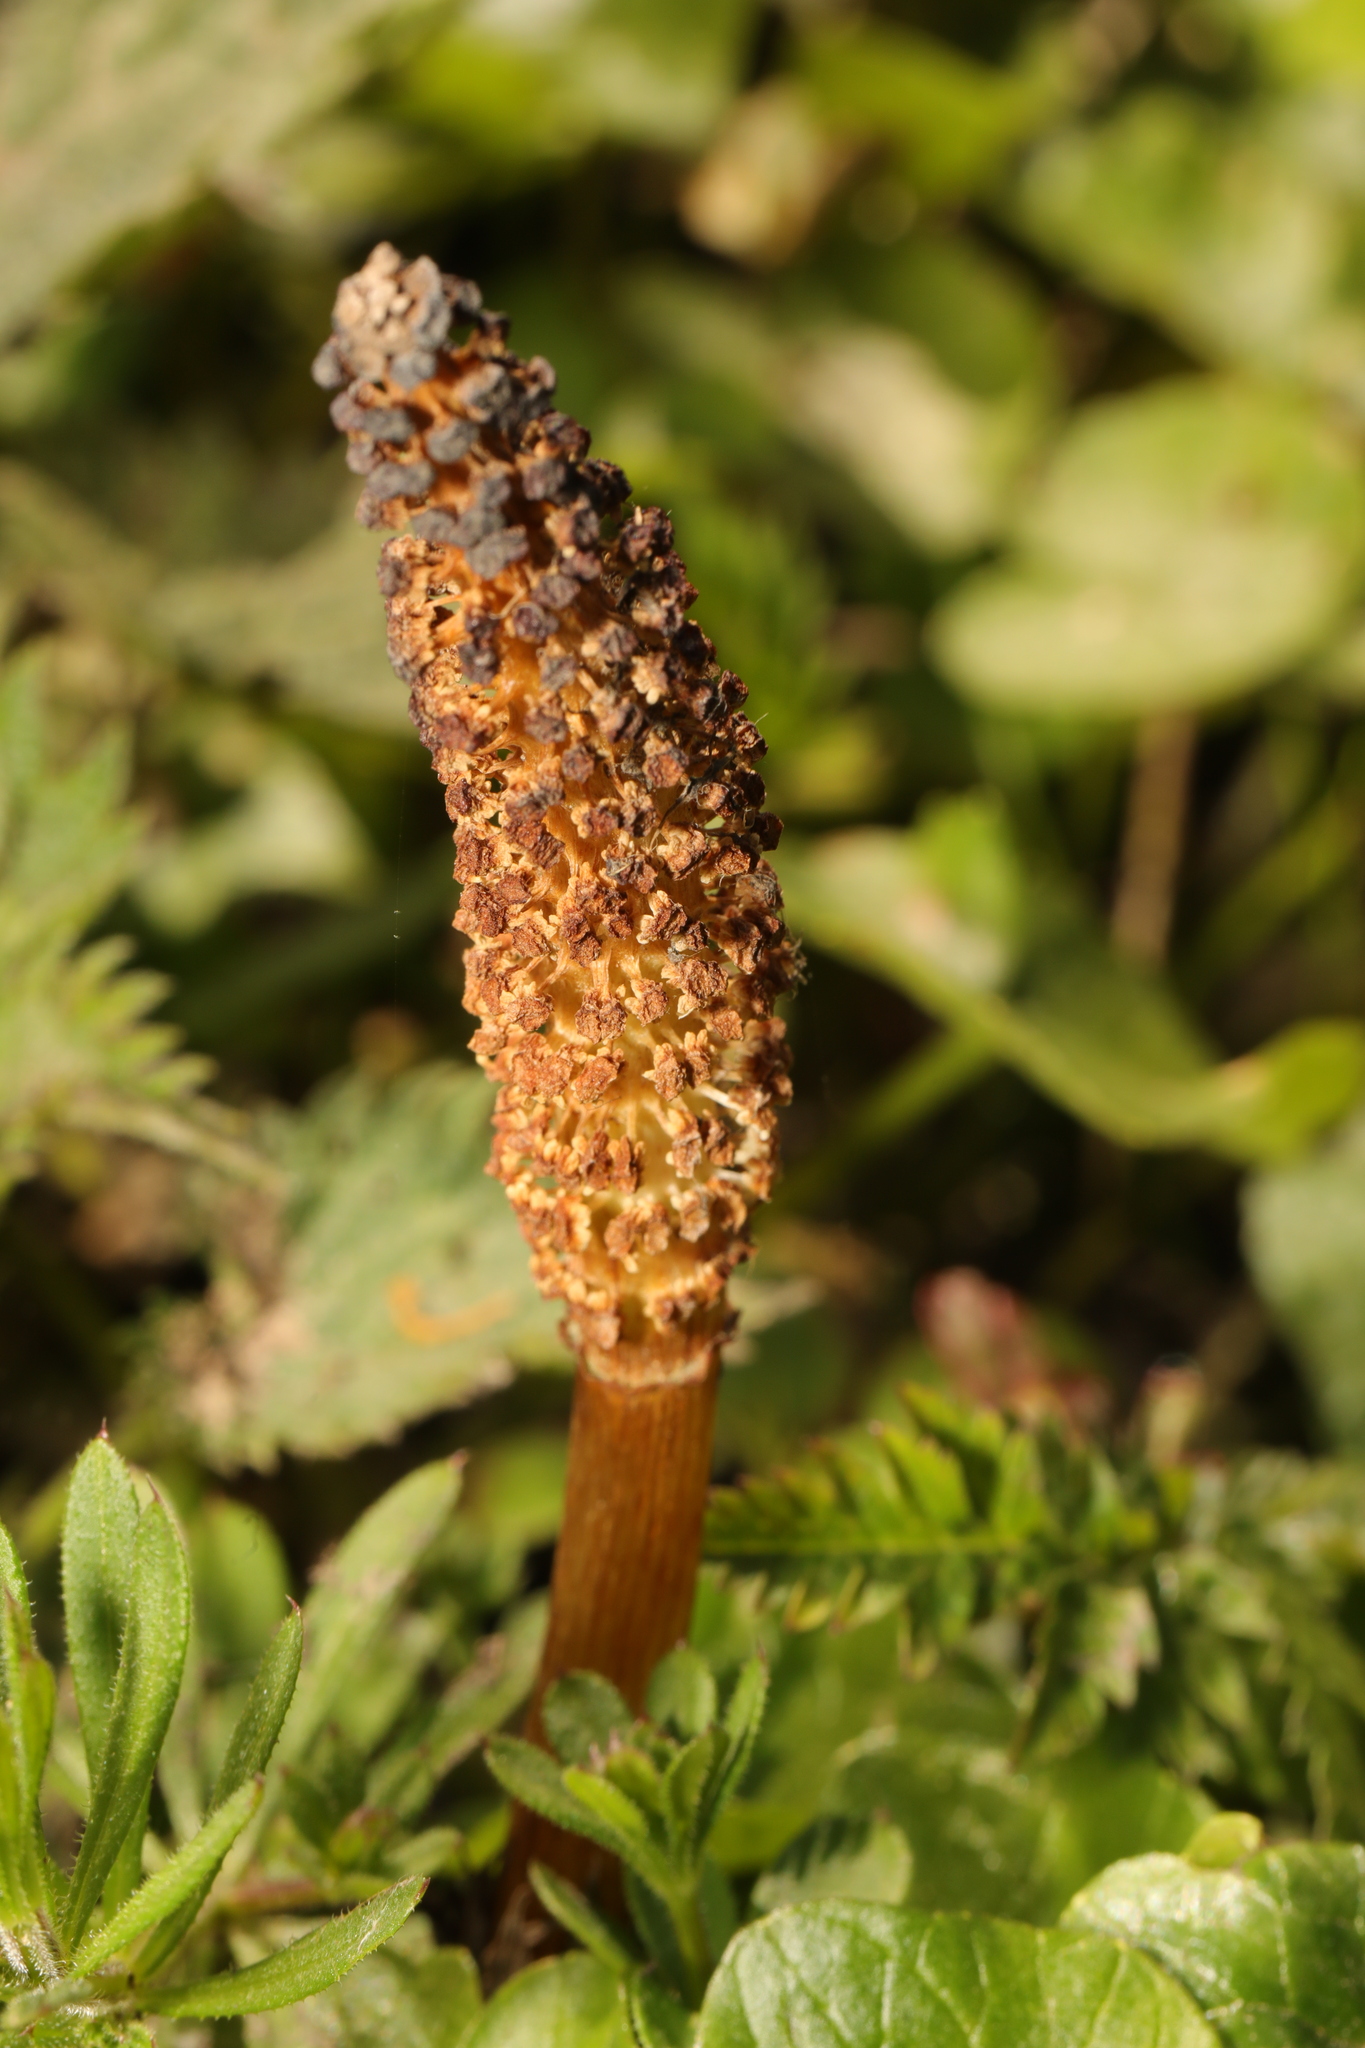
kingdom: Plantae
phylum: Tracheophyta
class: Polypodiopsida
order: Equisetales
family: Equisetaceae
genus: Equisetum
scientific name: Equisetum telmateia
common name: Great horsetail
